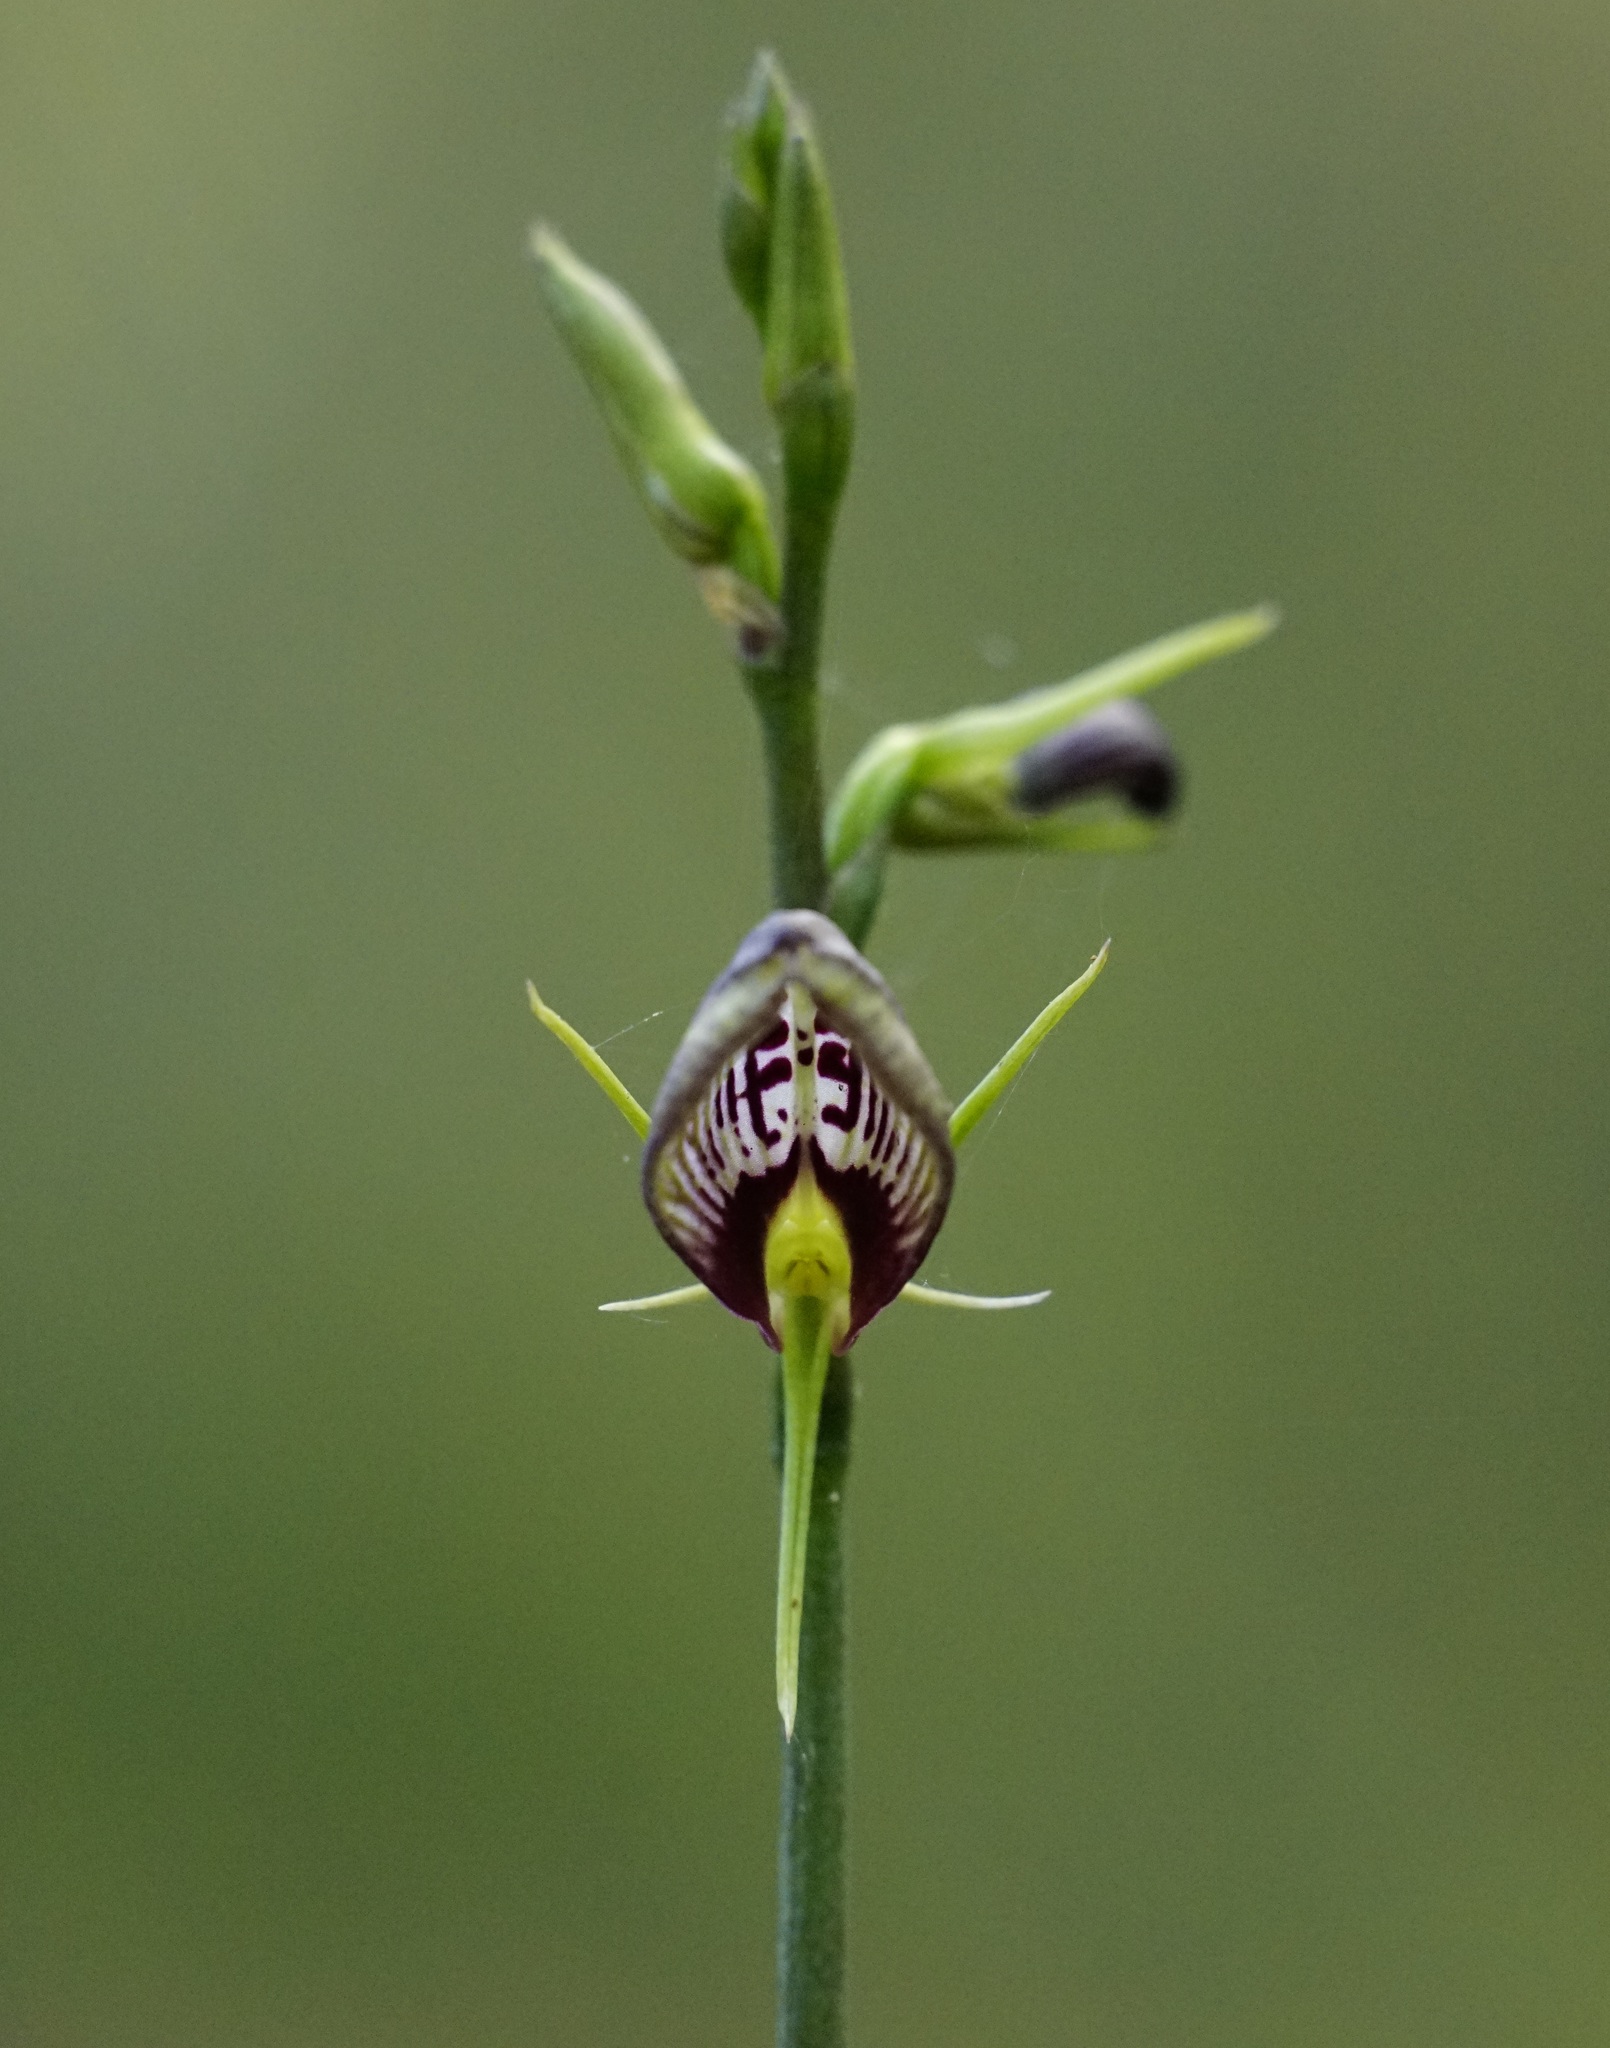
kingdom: Plantae
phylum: Tracheophyta
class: Liliopsida
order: Asparagales
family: Orchidaceae
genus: Cryptostylis
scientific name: Cryptostylis erecta
